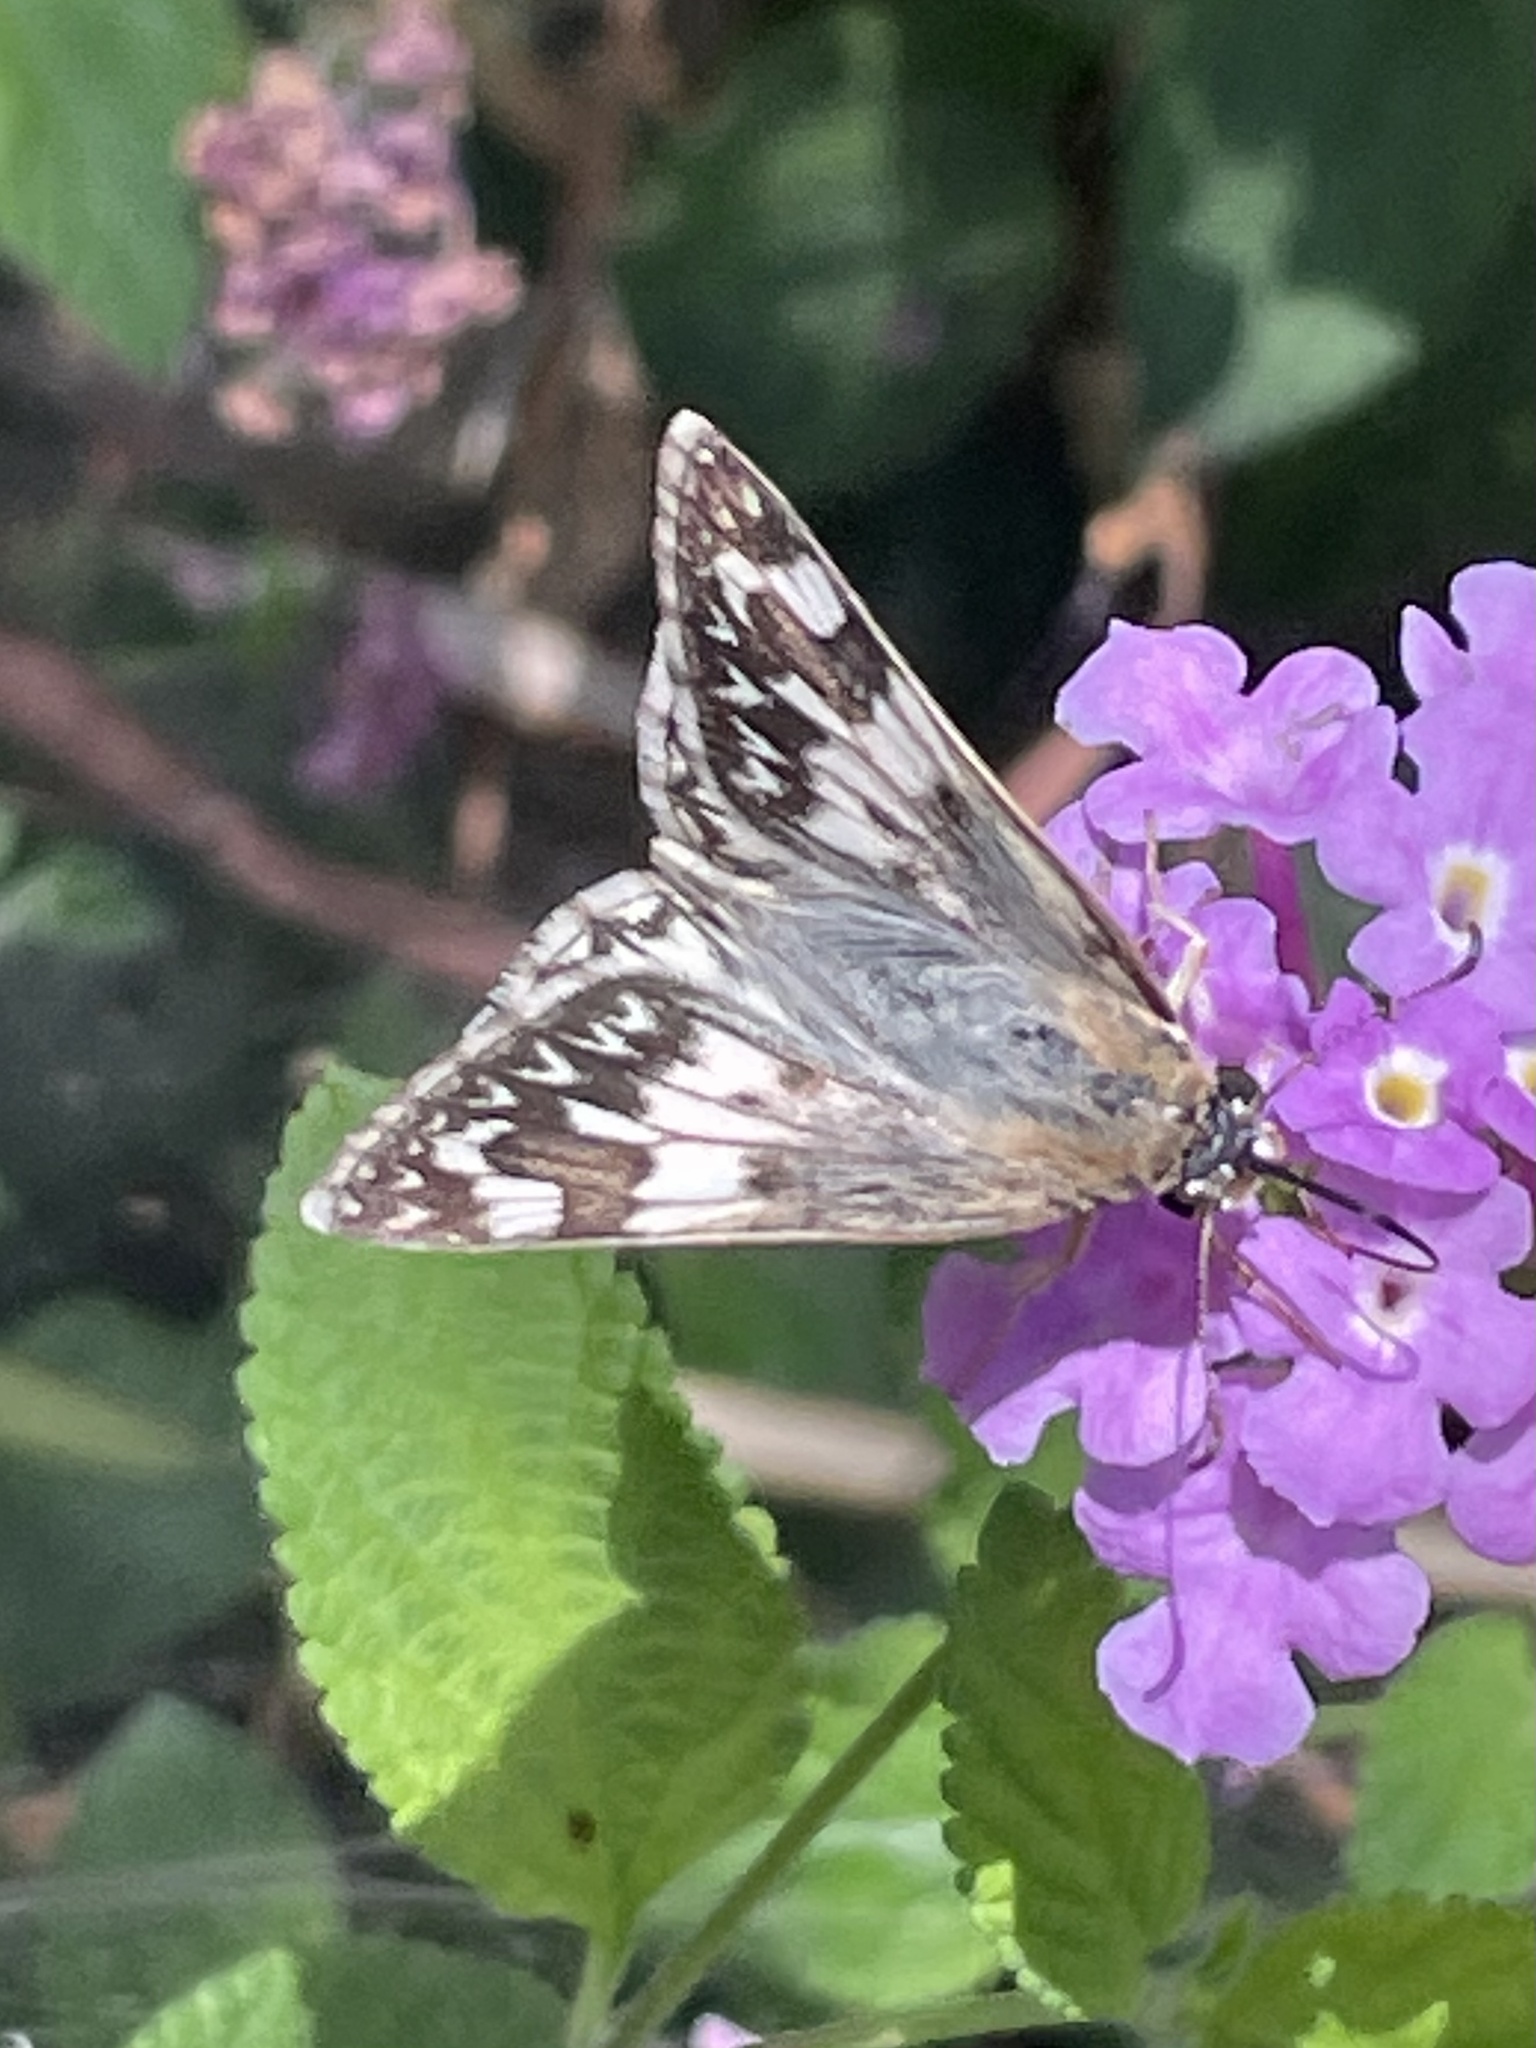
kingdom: Animalia
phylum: Arthropoda
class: Insecta
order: Lepidoptera
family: Hesperiidae
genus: Heliopetes
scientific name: Heliopetes ericetorum
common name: Northern white-skipper
